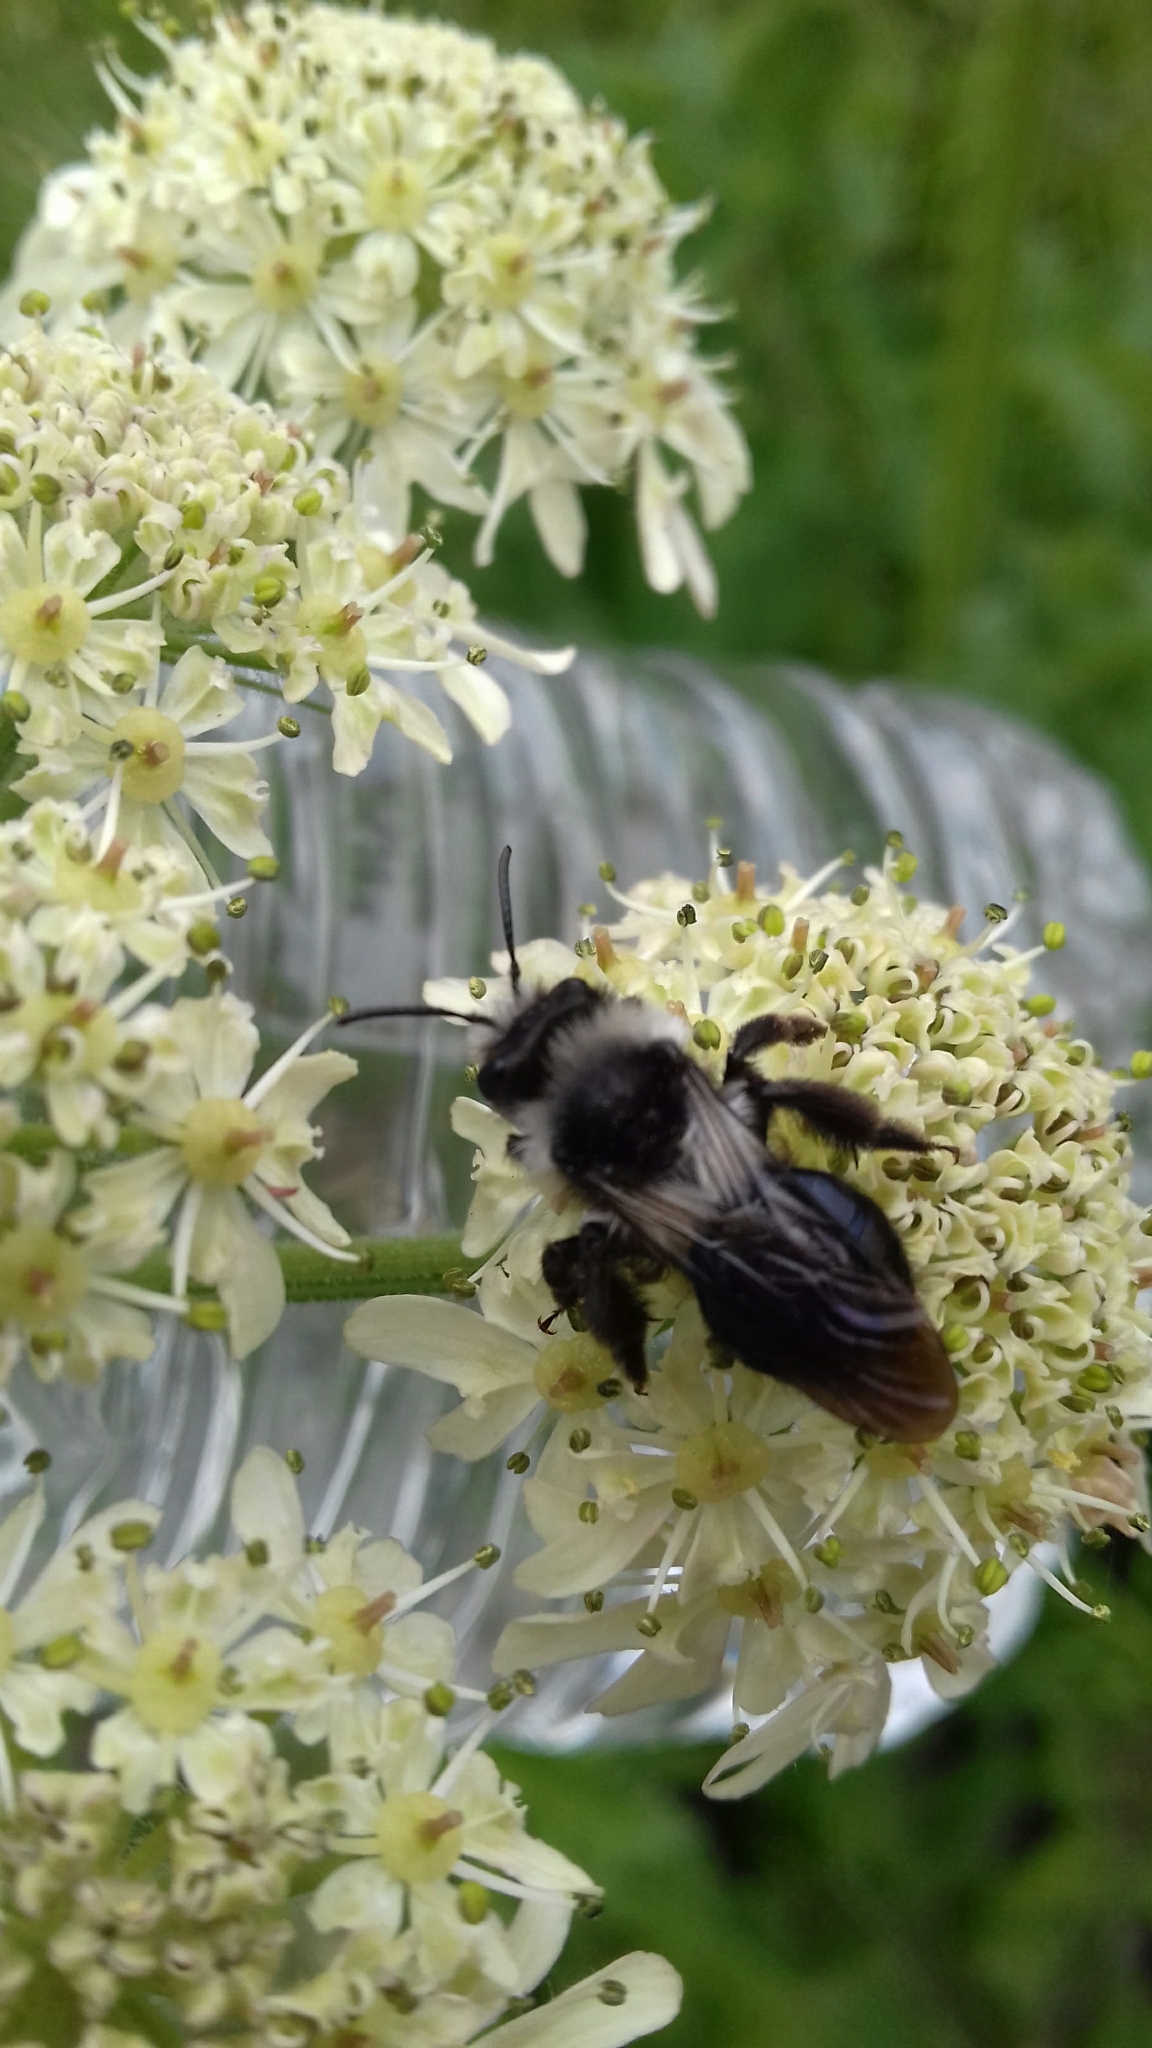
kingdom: Animalia
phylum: Arthropoda
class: Insecta
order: Hymenoptera
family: Andrenidae
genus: Andrena
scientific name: Andrena cineraria
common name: Ashy mining bee
